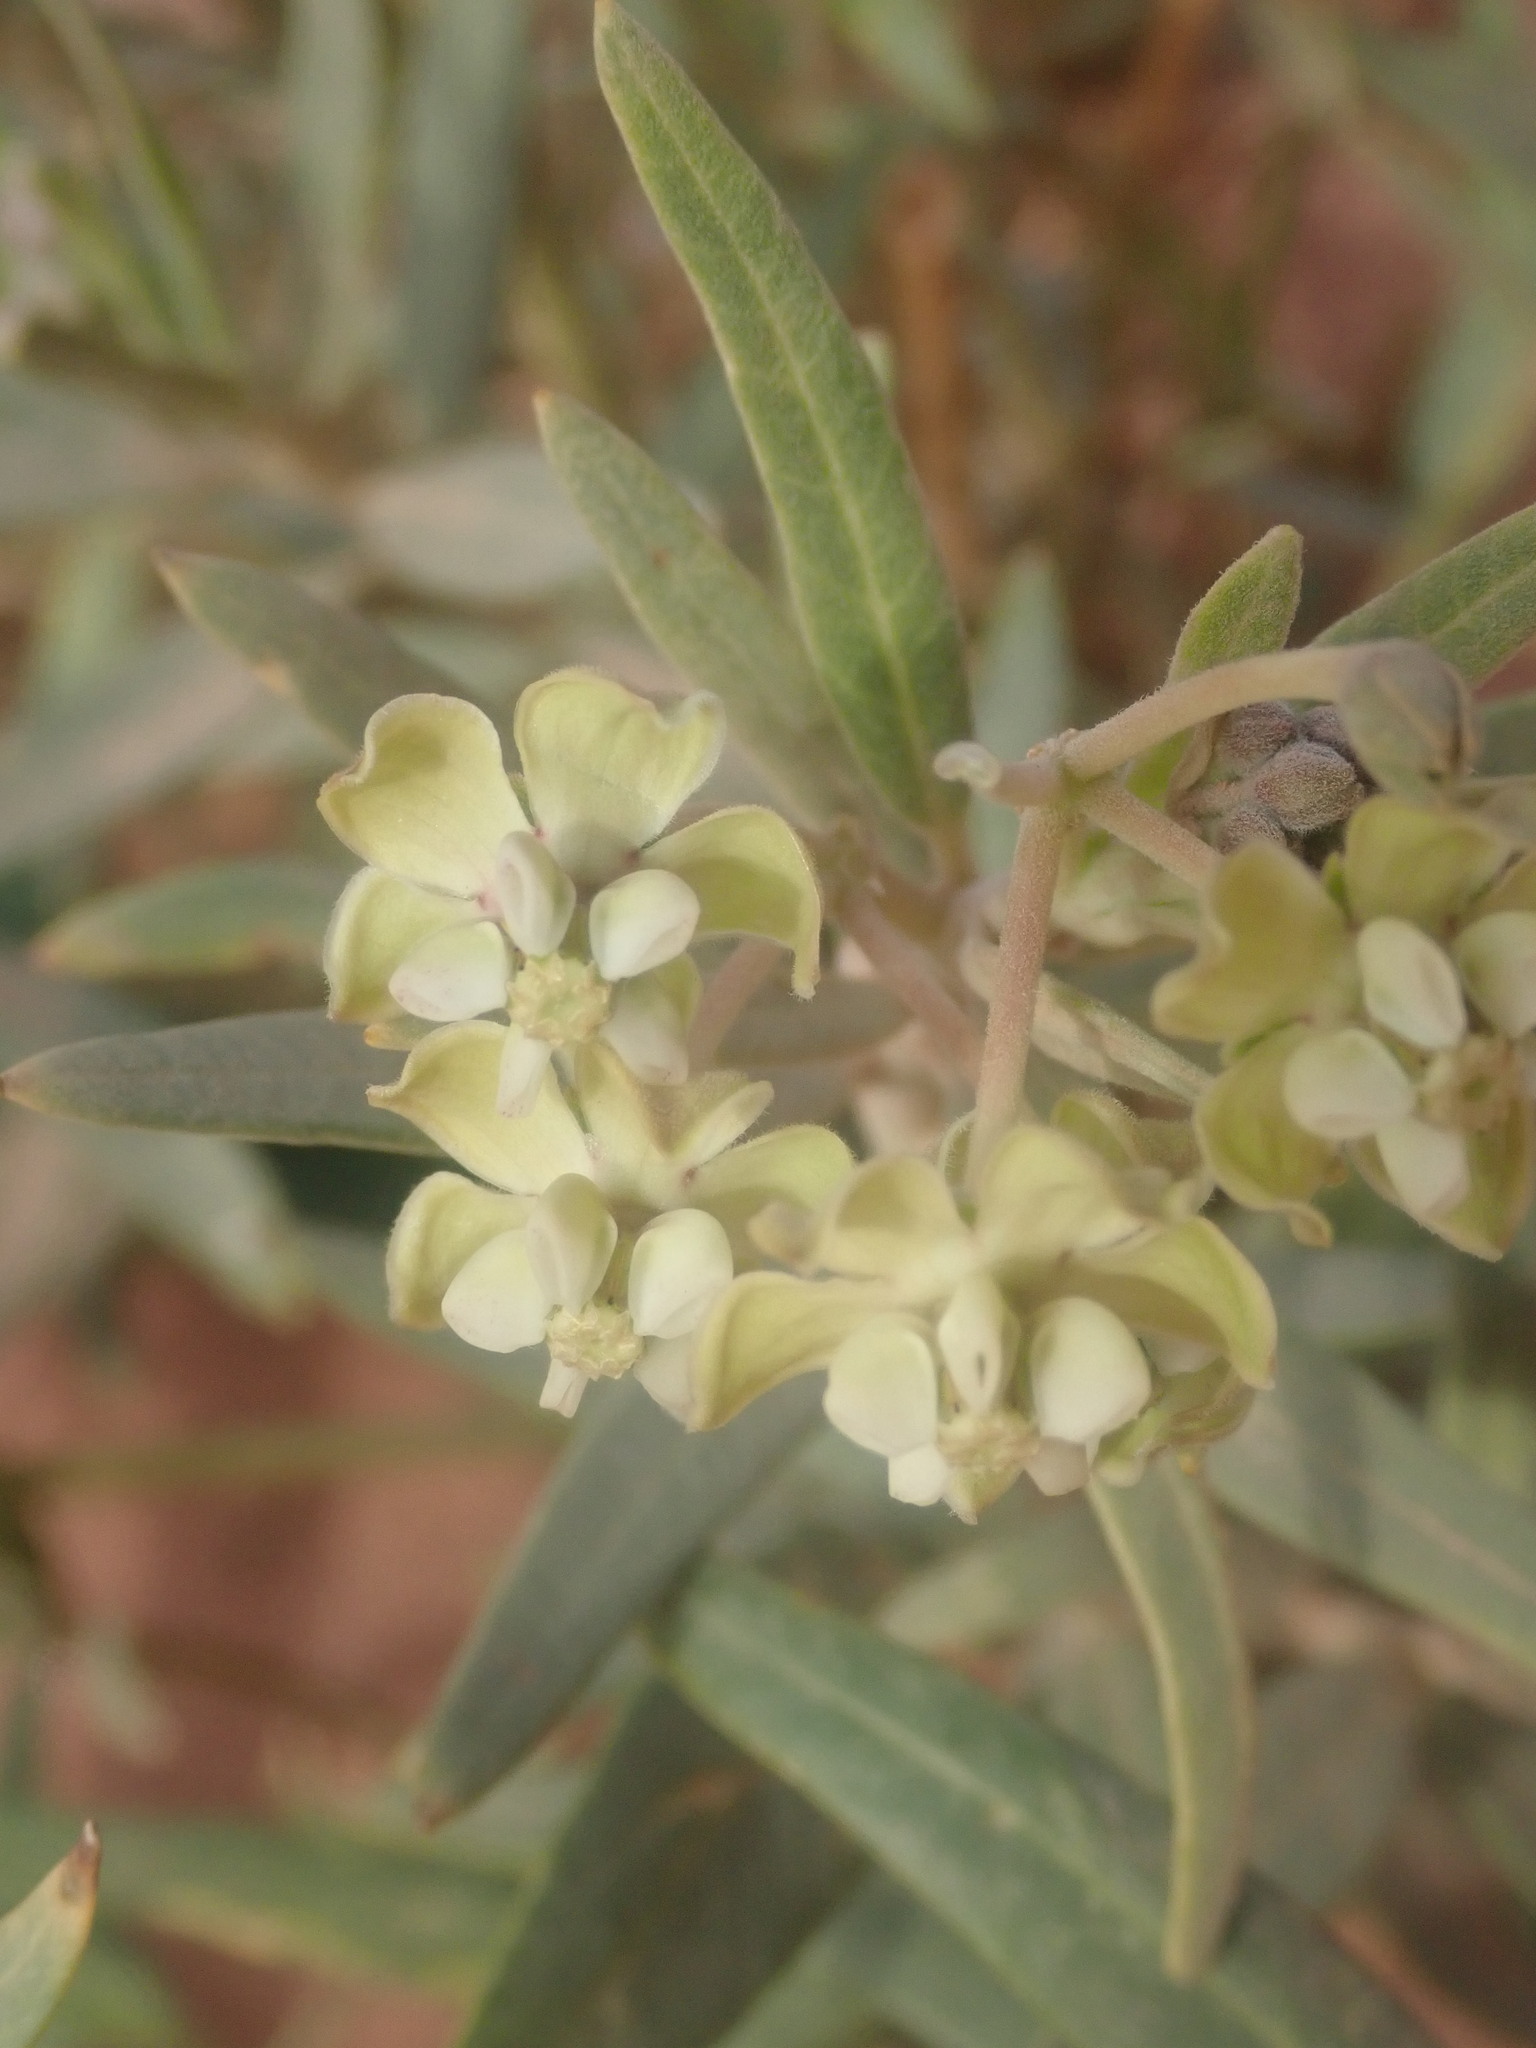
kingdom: Plantae
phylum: Tracheophyta
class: Magnoliopsida
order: Gentianales
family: Apocynaceae
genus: Gomphocarpus
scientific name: Gomphocarpus sinaicus
